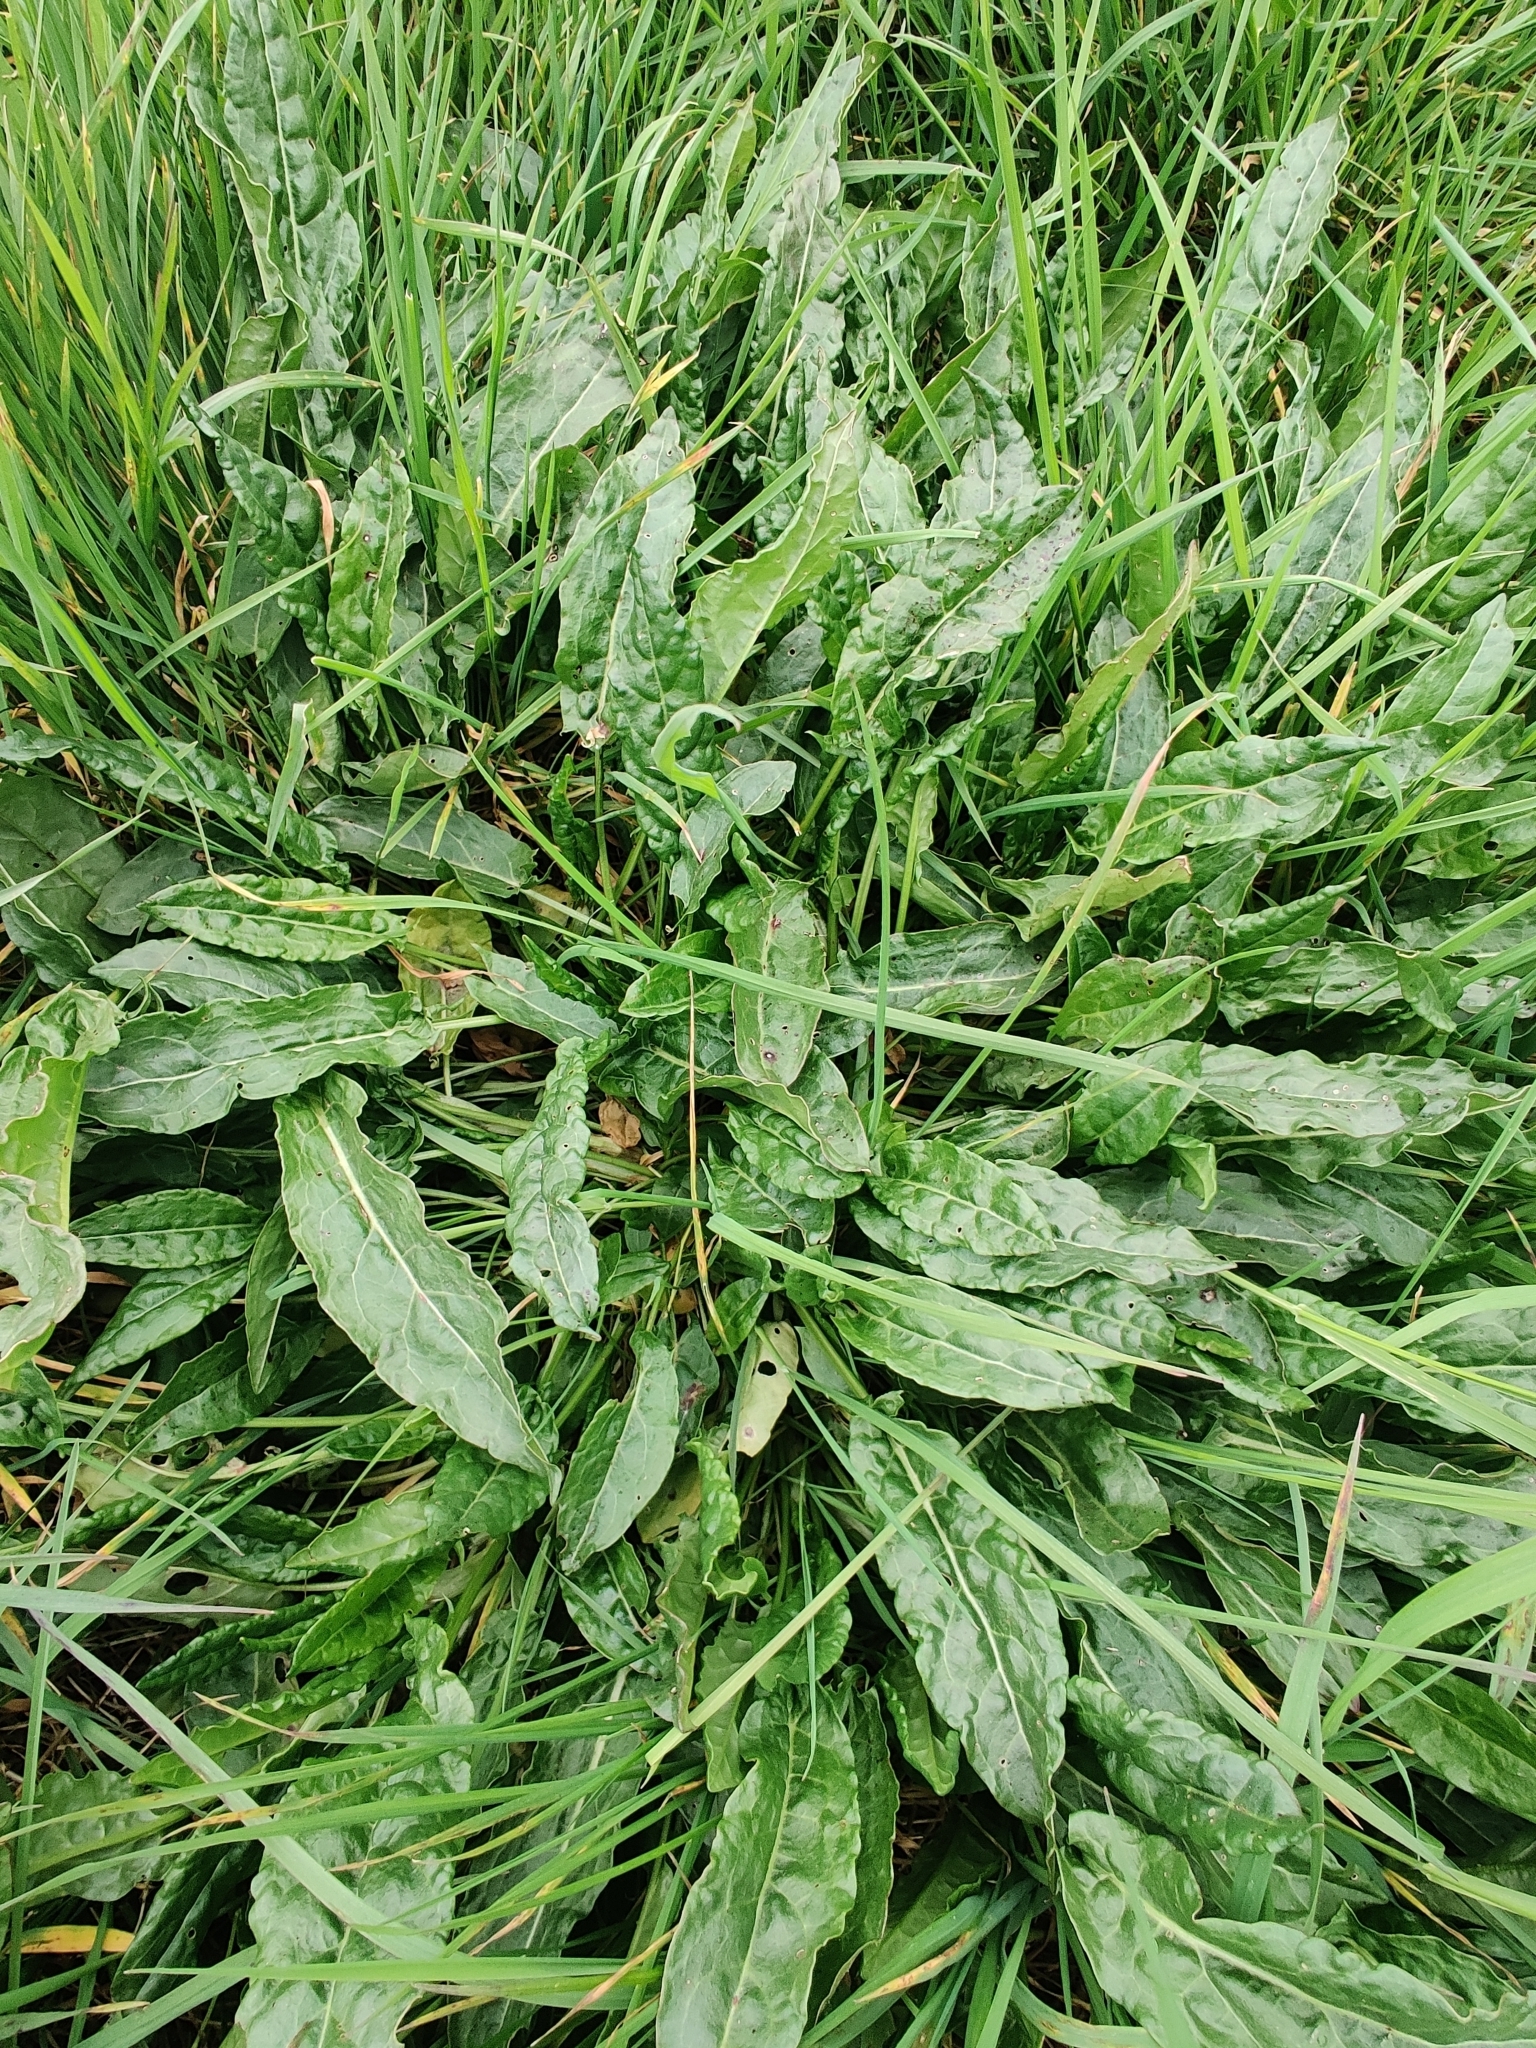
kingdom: Plantae
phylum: Tracheophyta
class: Magnoliopsida
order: Caryophyllales
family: Polygonaceae
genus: Rumex
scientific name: Rumex acetosa
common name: Garden sorrel
